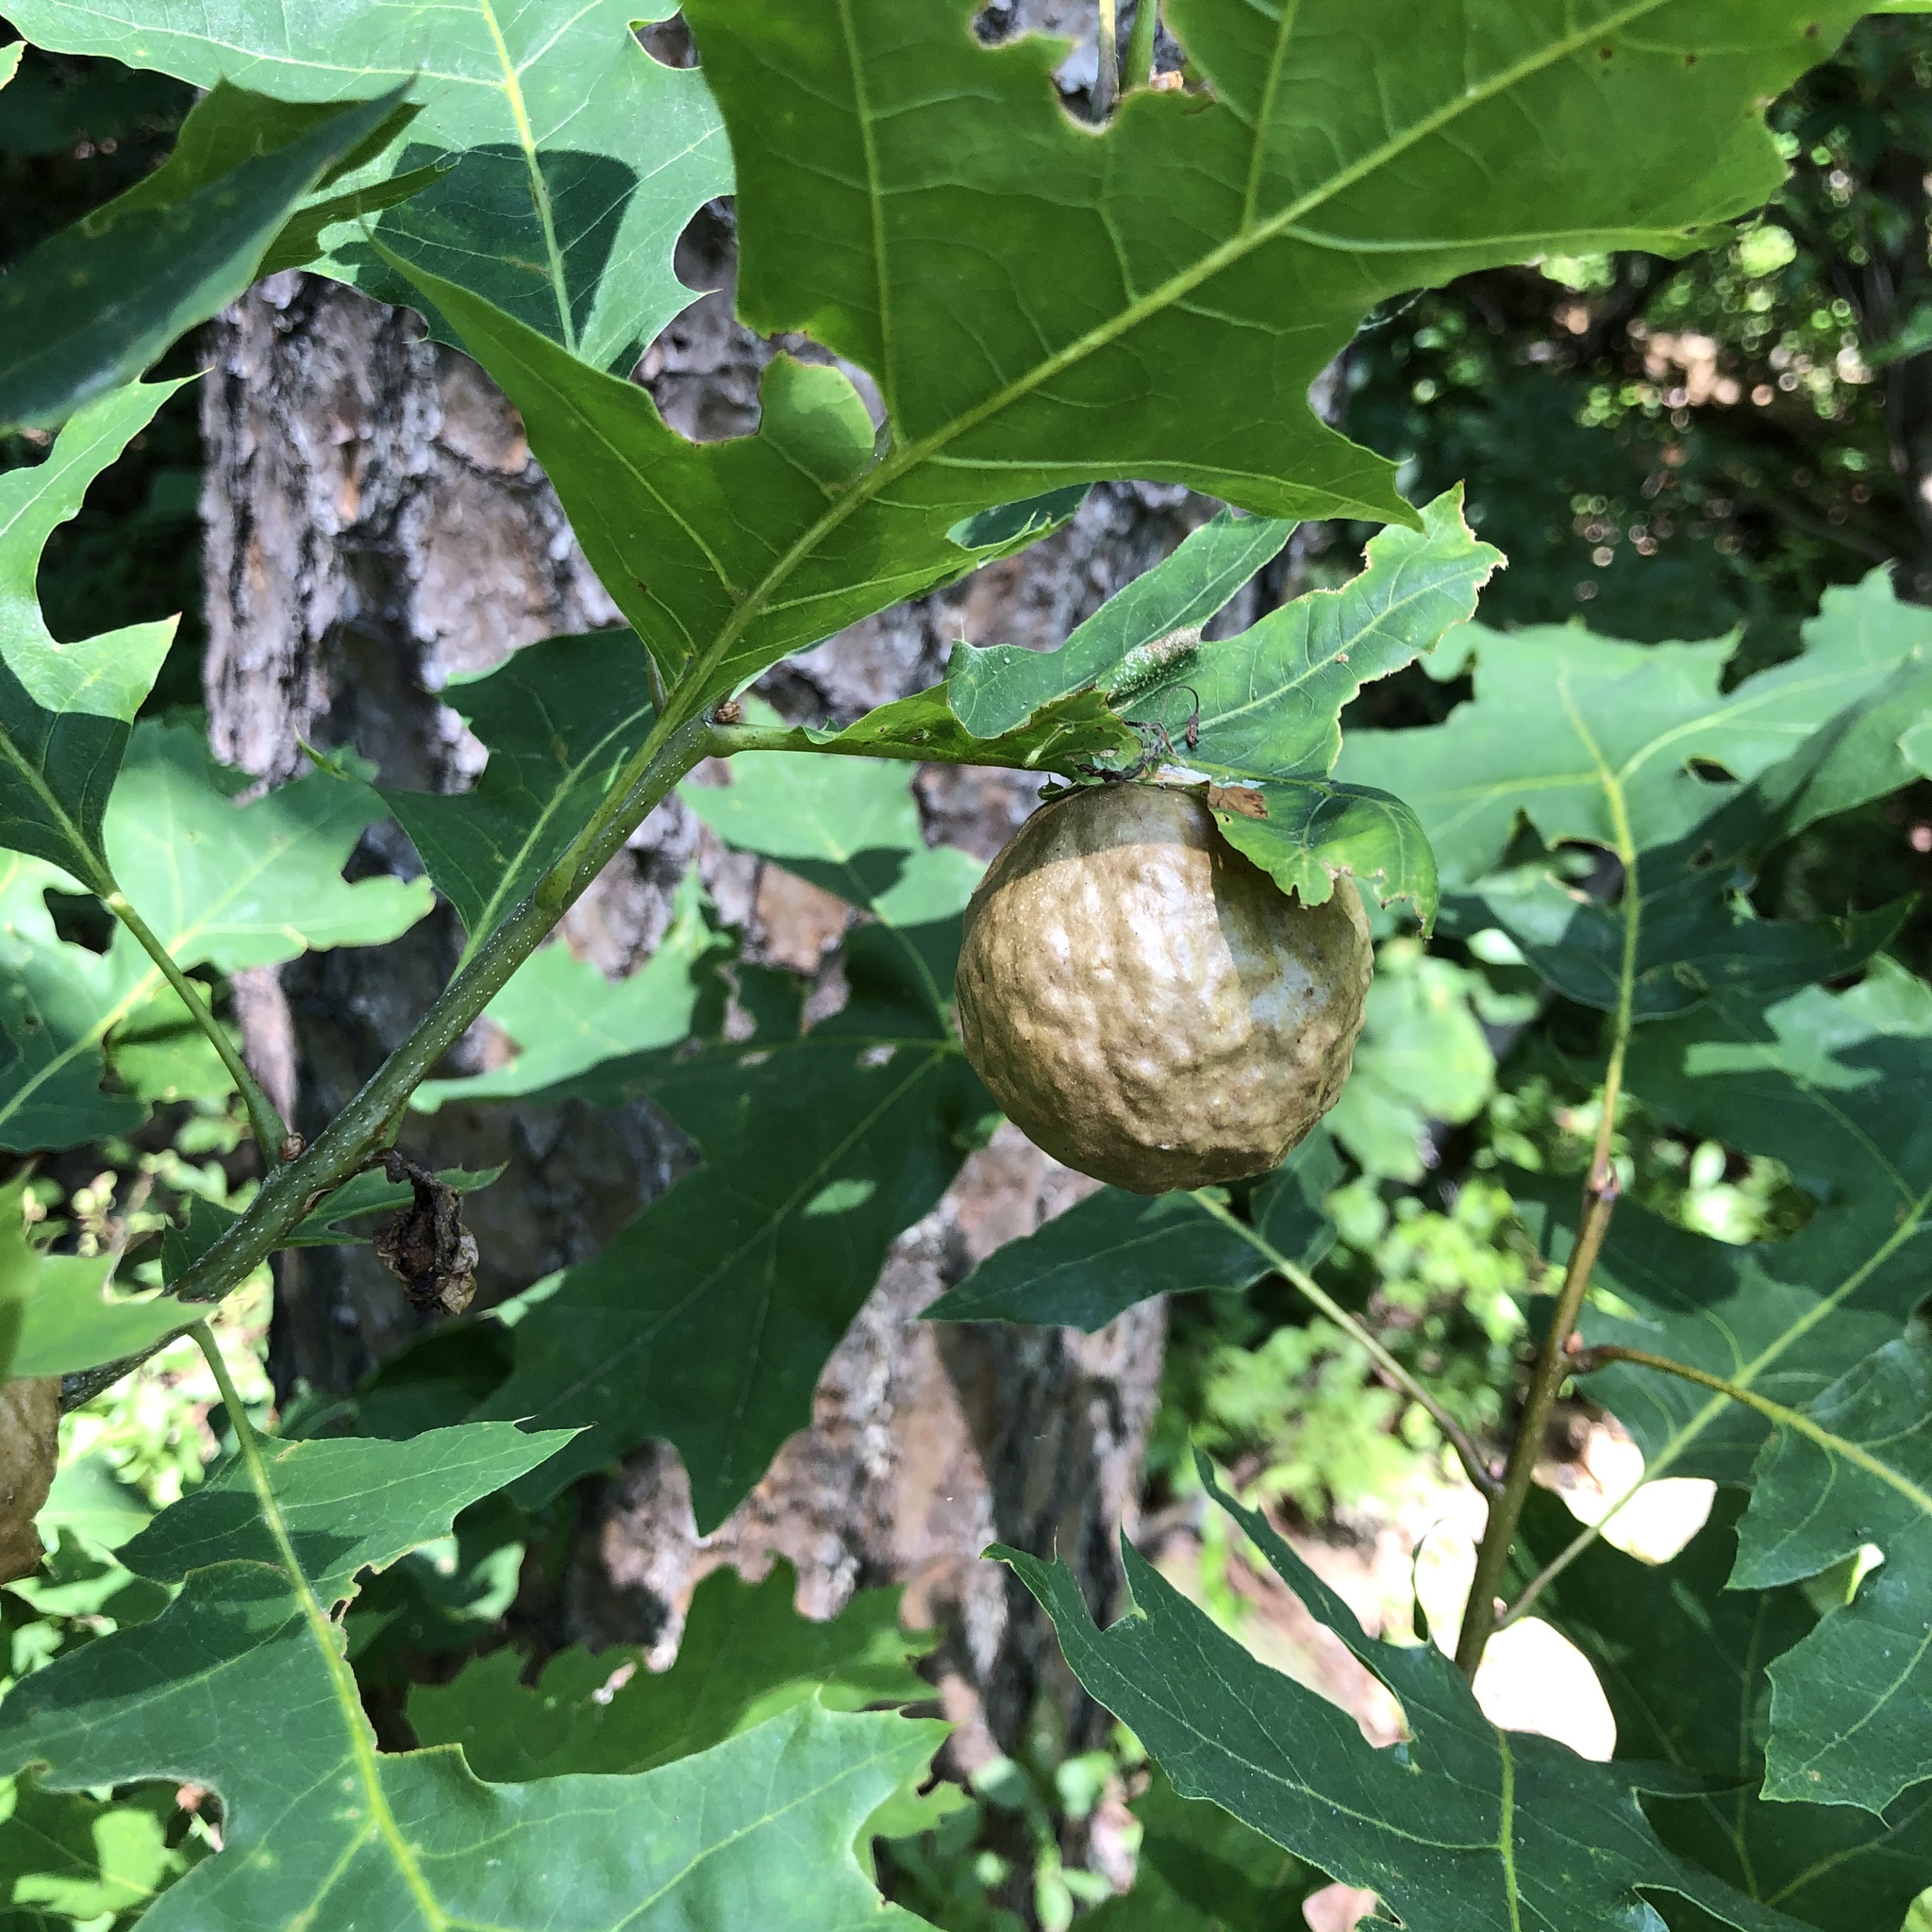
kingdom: Animalia
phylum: Arthropoda
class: Insecta
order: Hymenoptera
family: Cynipidae
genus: Amphibolips
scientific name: Amphibolips
